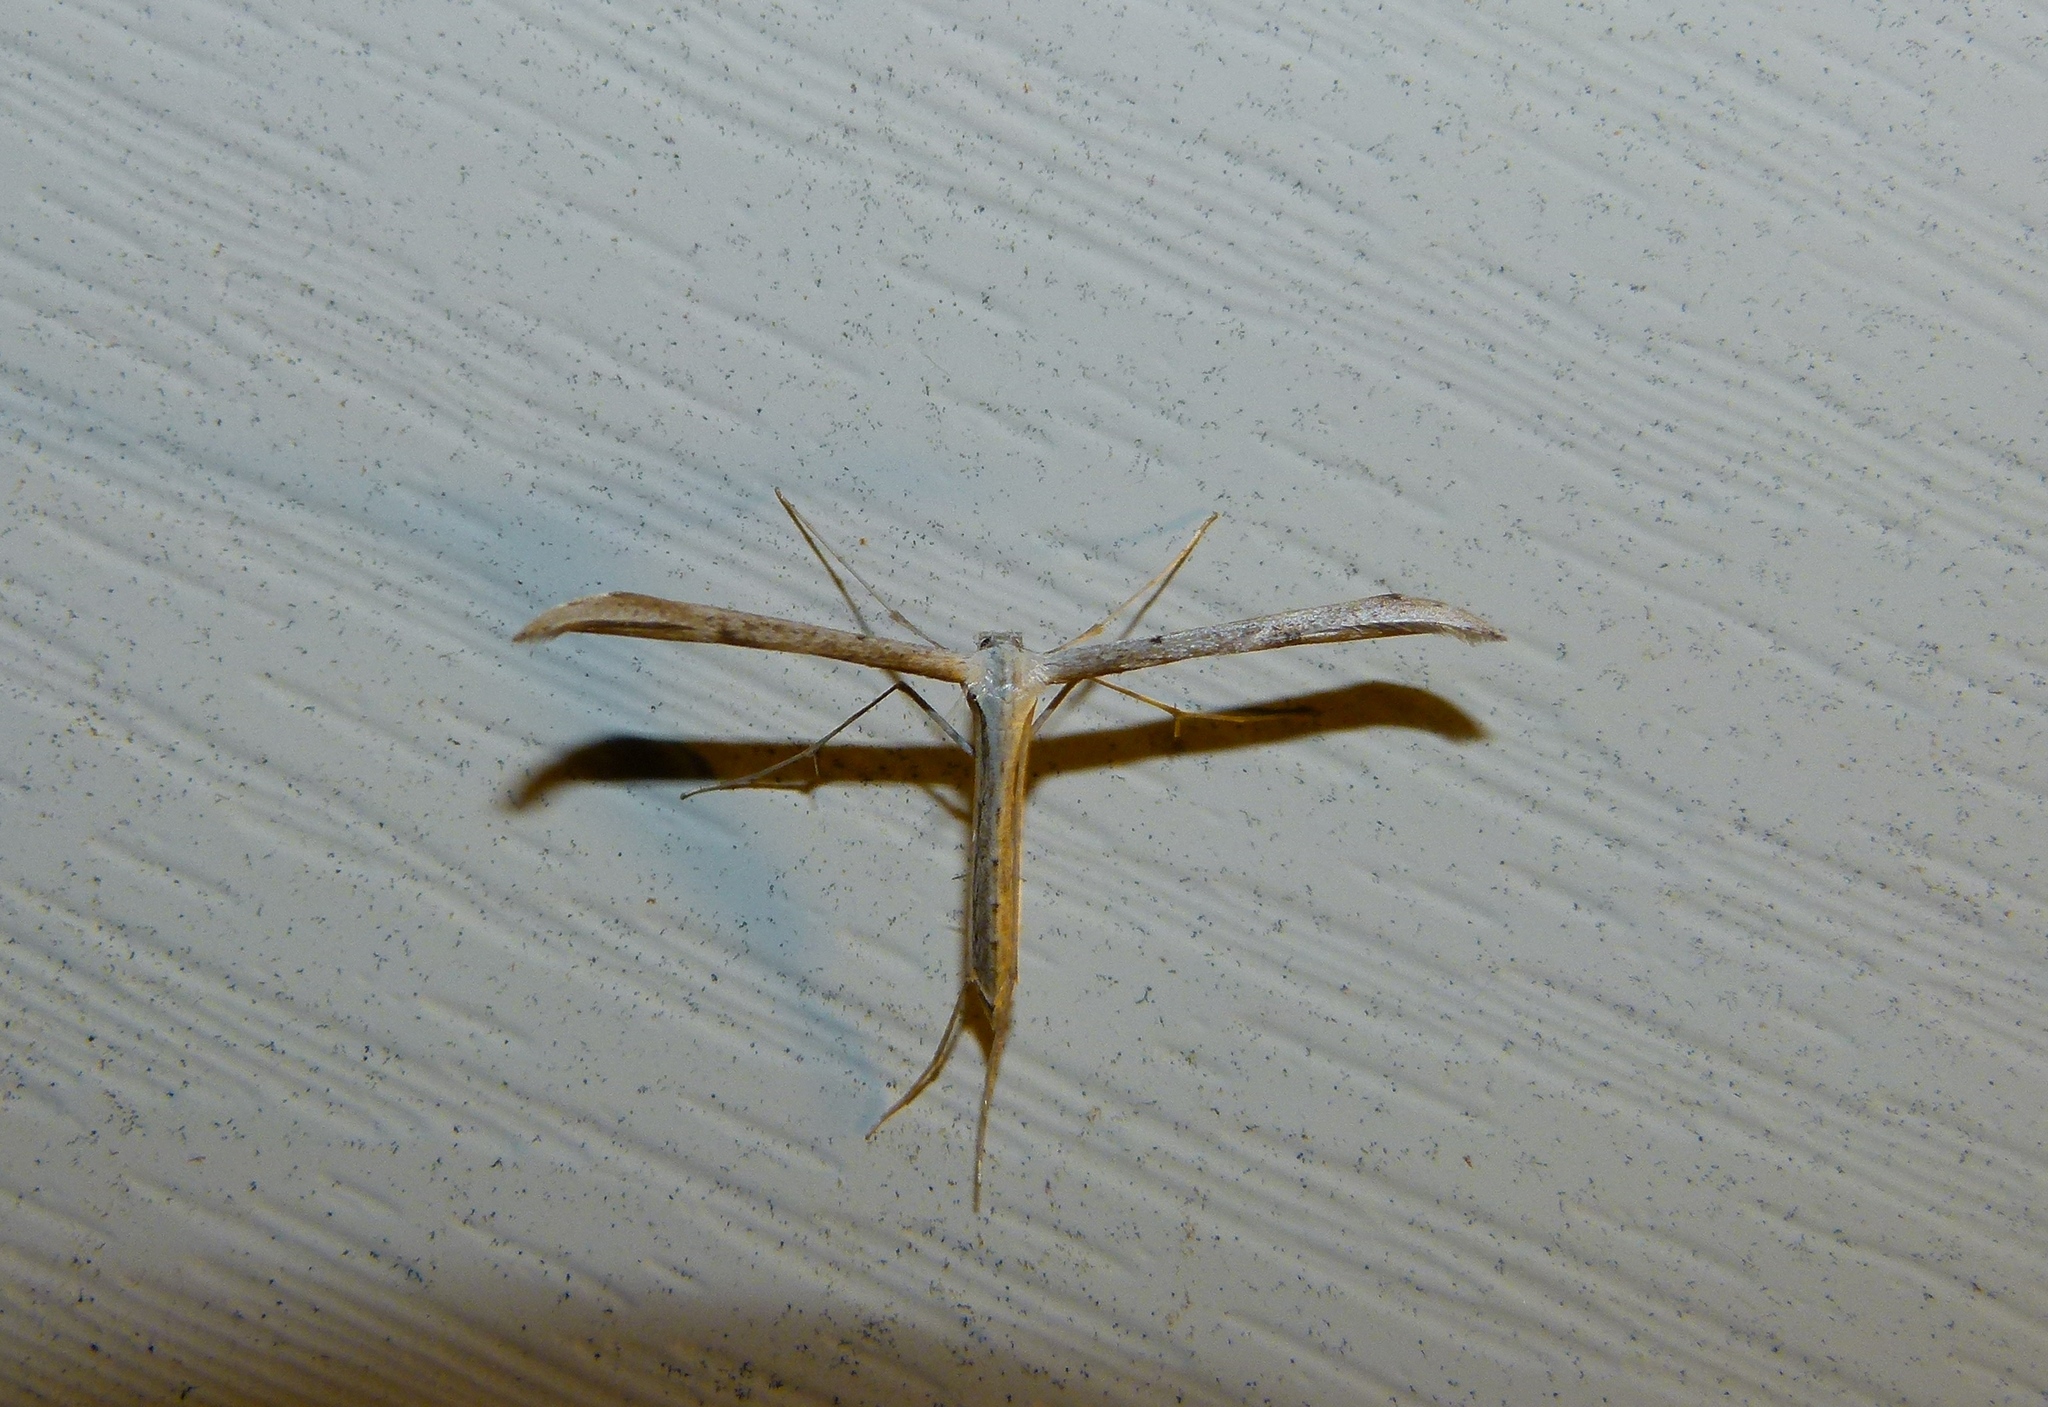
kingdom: Animalia
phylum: Arthropoda
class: Insecta
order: Lepidoptera
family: Pterophoridae
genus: Emmelina
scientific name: Emmelina monodactyla
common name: Common plume
